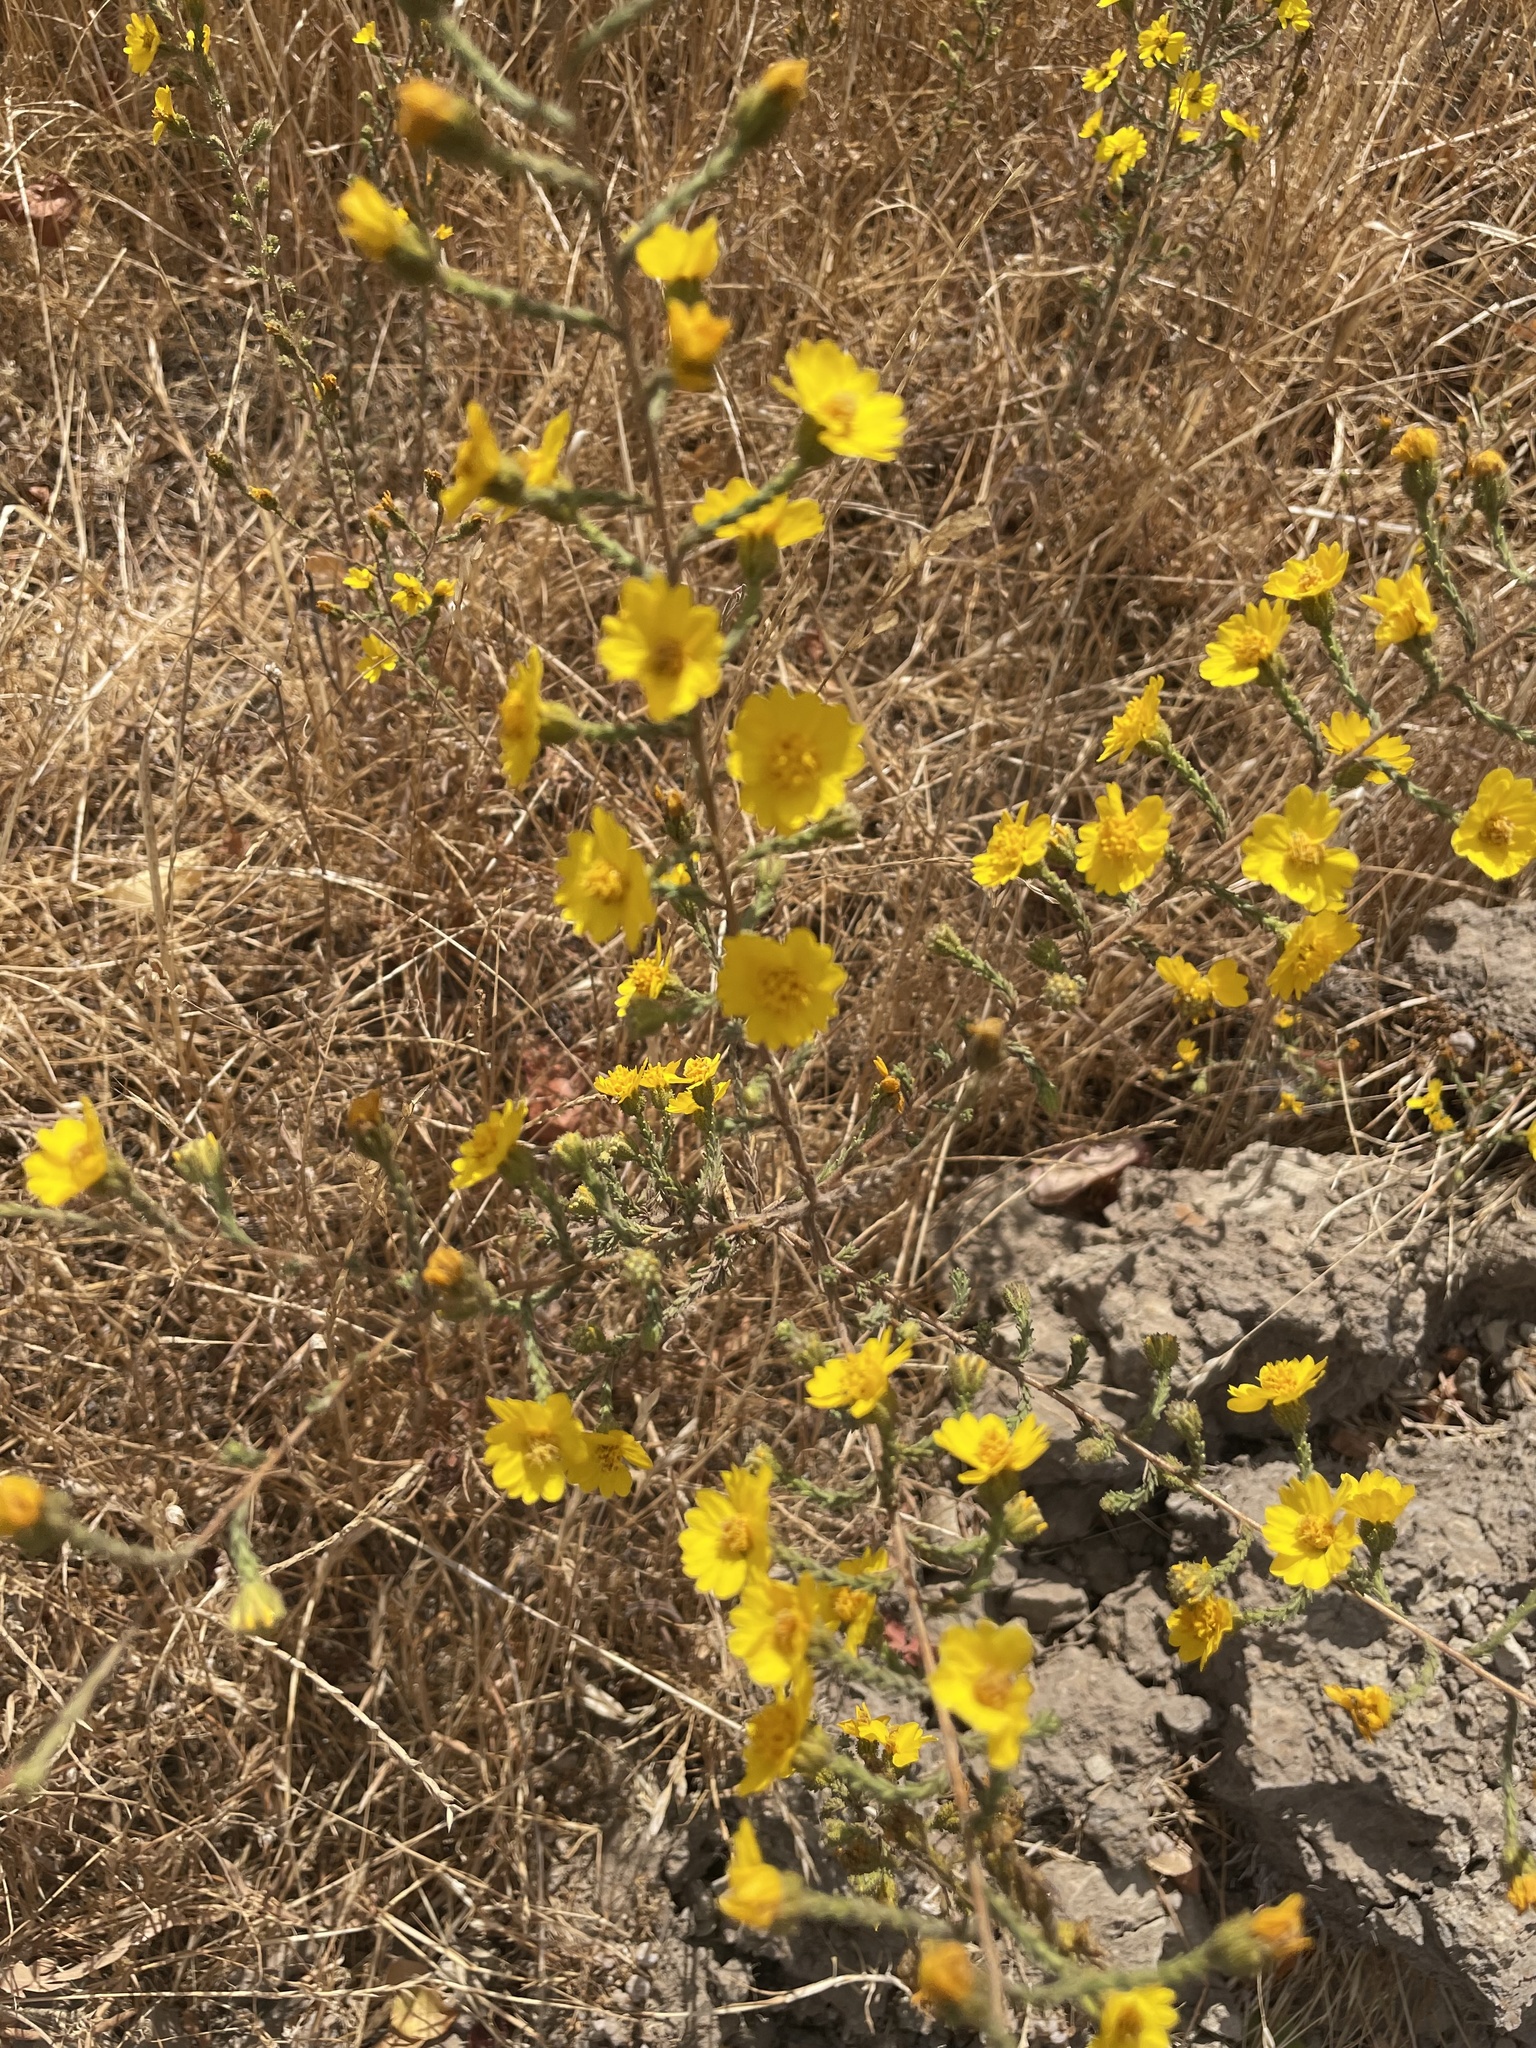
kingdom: Plantae
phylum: Tracheophyta
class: Magnoliopsida
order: Asterales
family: Asteraceae
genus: Holocarpha
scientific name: Holocarpha heermannii
